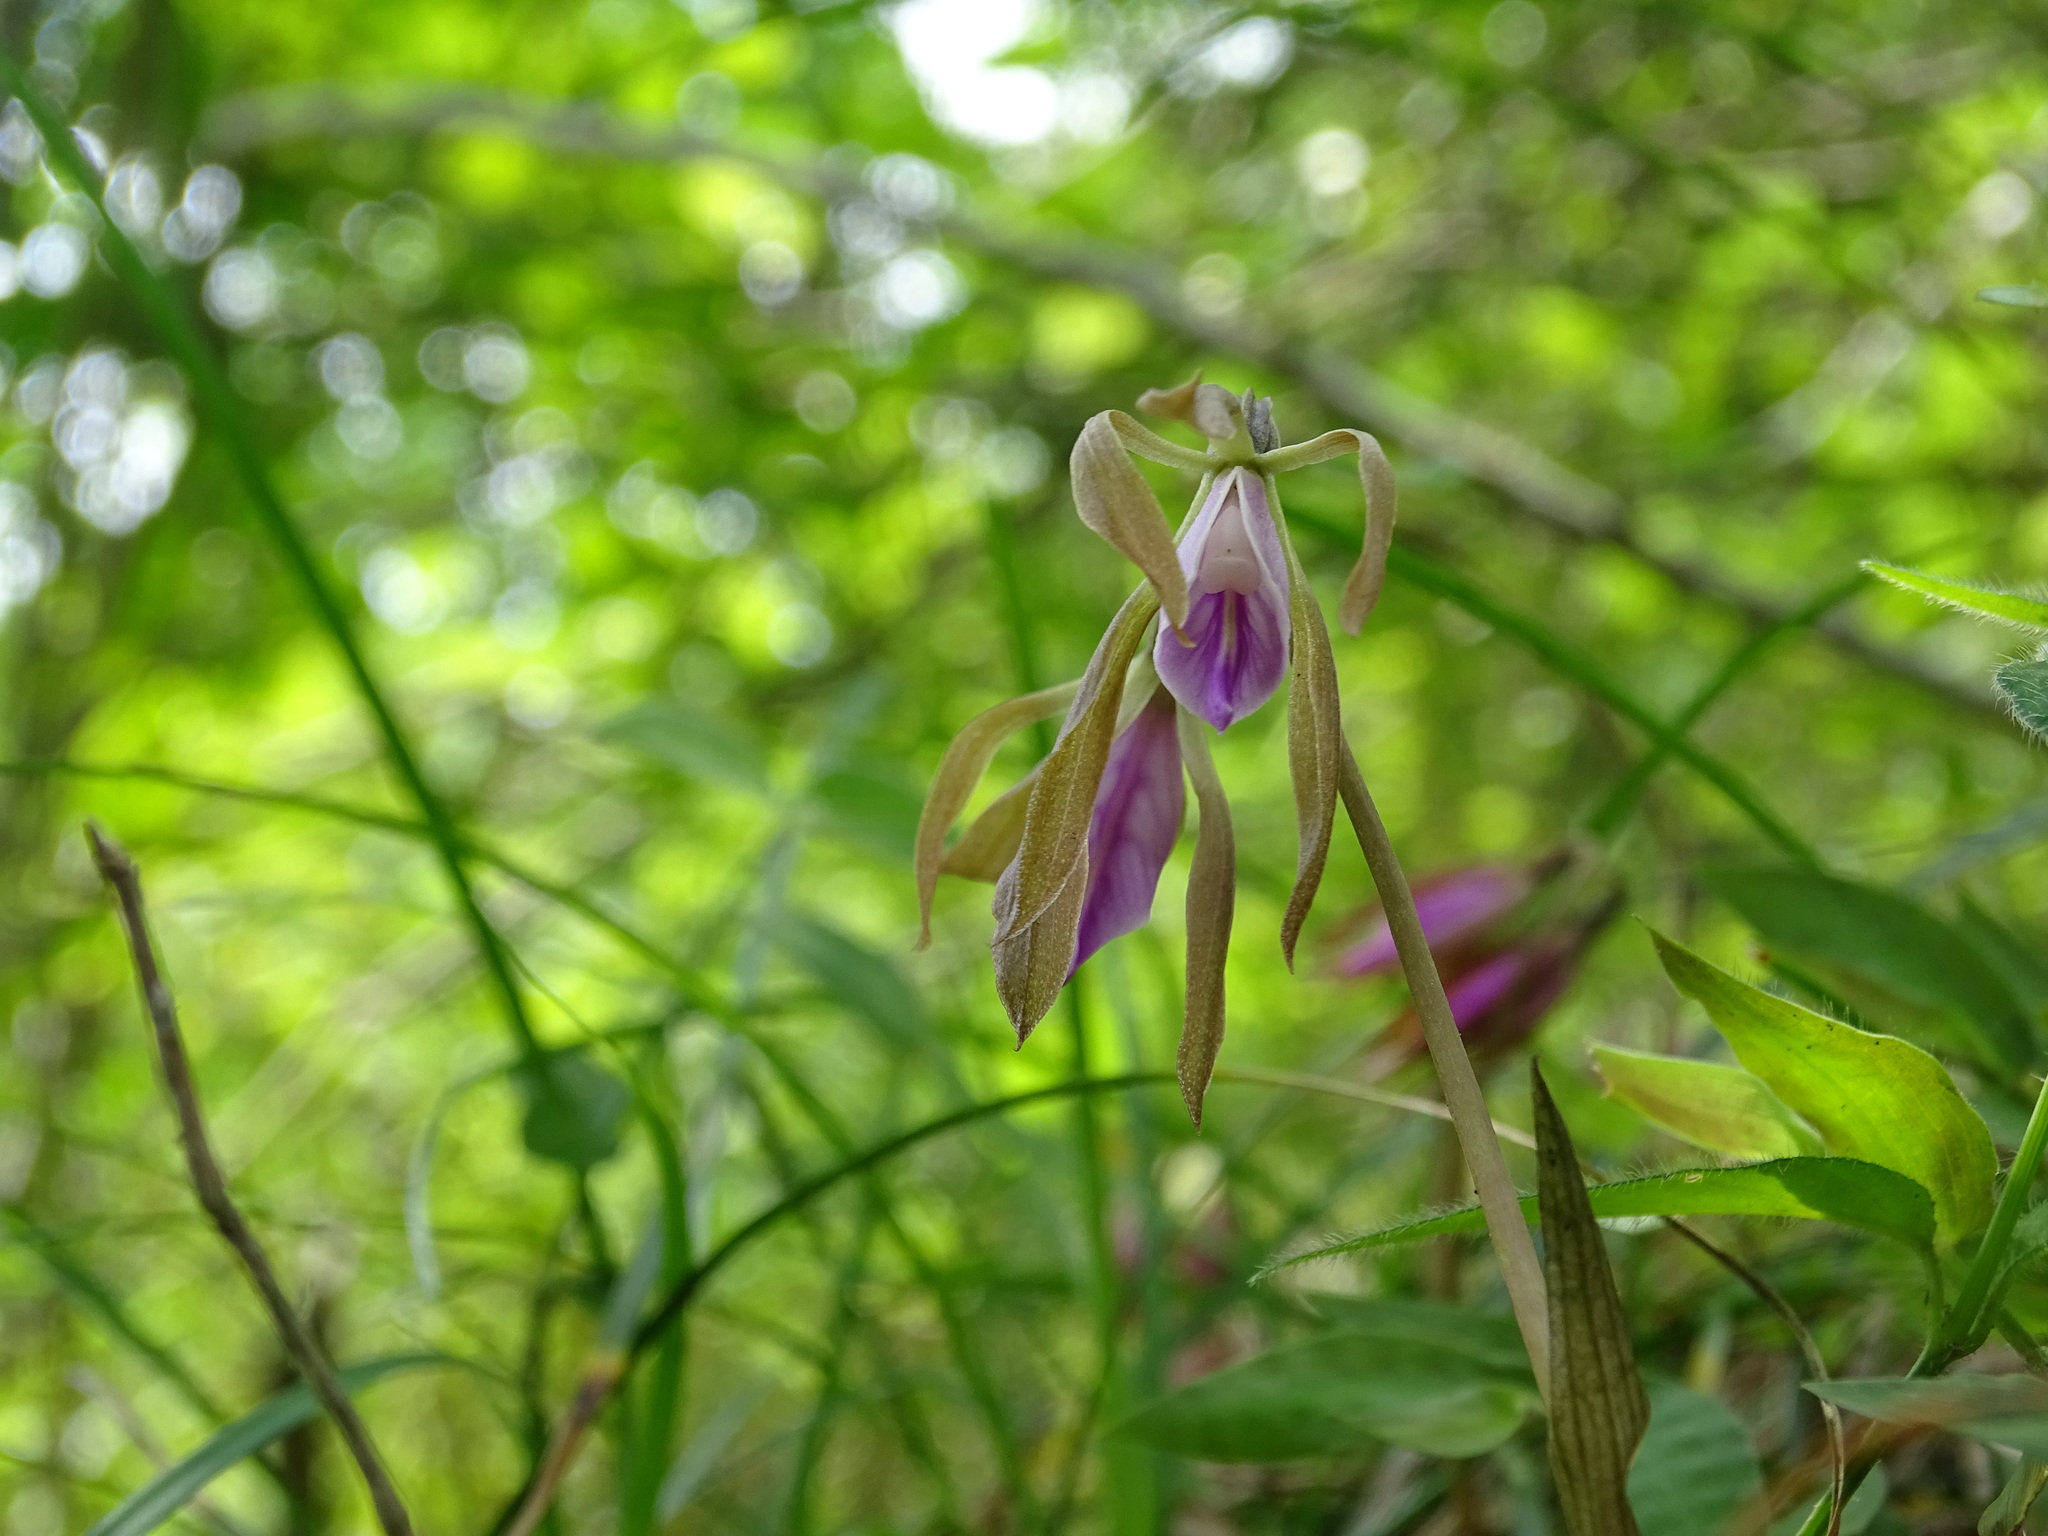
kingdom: Plantae
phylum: Tracheophyta
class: Liliopsida
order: Asparagales
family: Orchidaceae
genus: Nervilia
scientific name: Nervilia plicata
